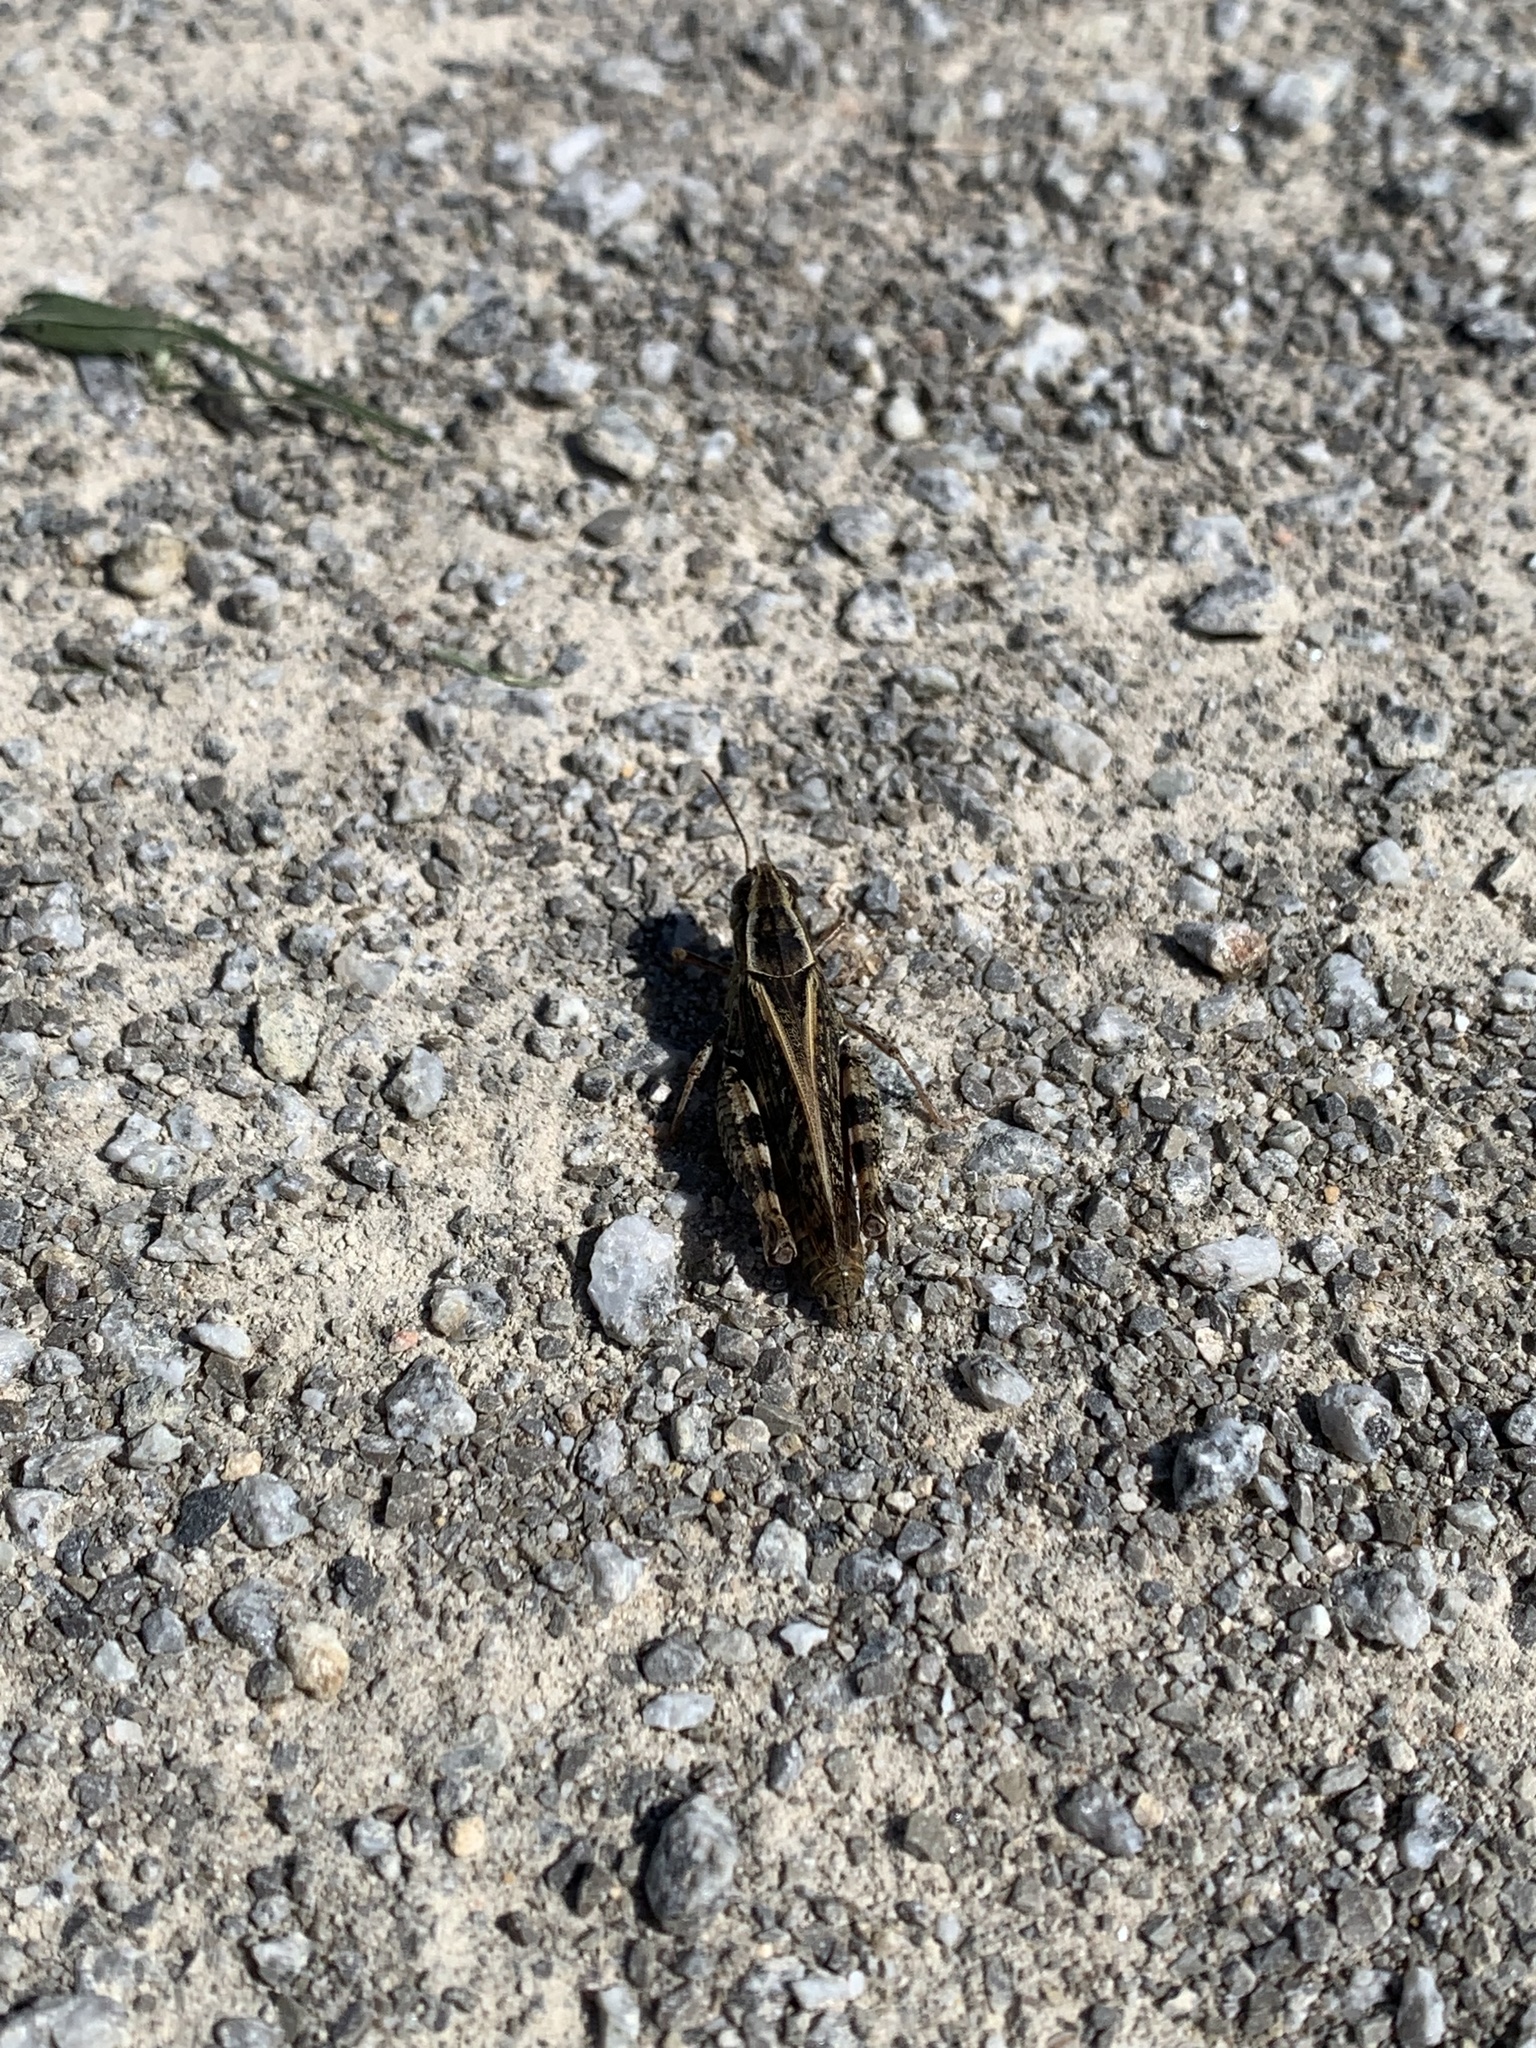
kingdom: Animalia
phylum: Arthropoda
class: Insecta
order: Orthoptera
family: Acrididae
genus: Calliptamus
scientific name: Calliptamus italicus
